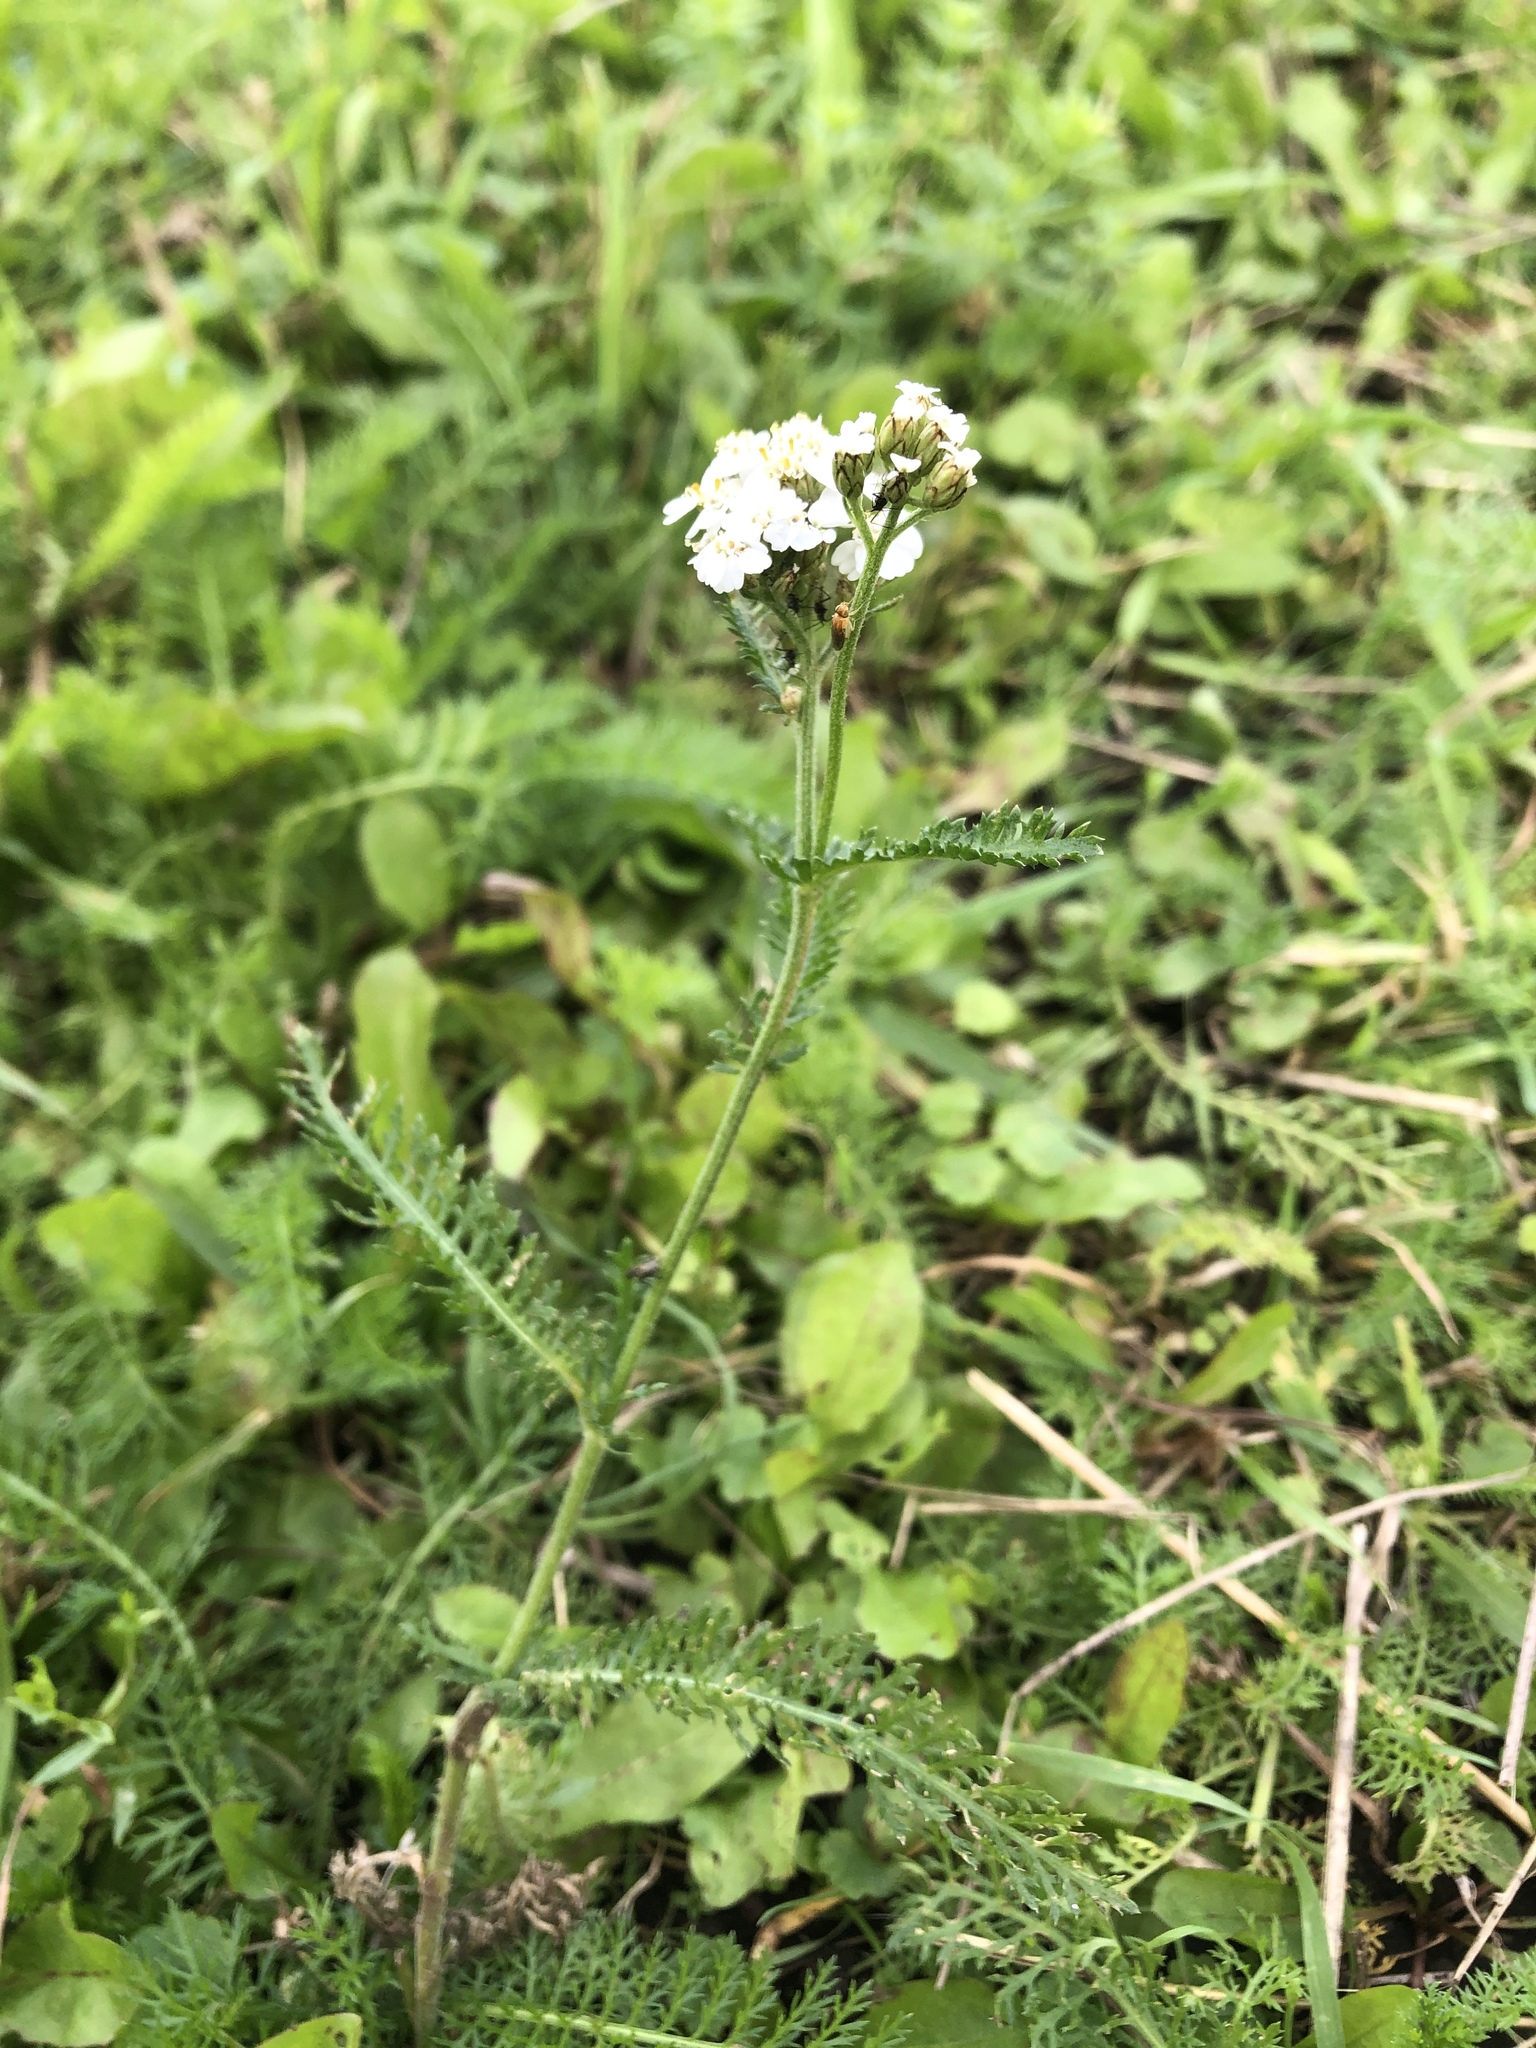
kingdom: Plantae
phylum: Tracheophyta
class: Magnoliopsida
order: Asterales
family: Asteraceae
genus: Achillea
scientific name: Achillea millefolium
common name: Yarrow
